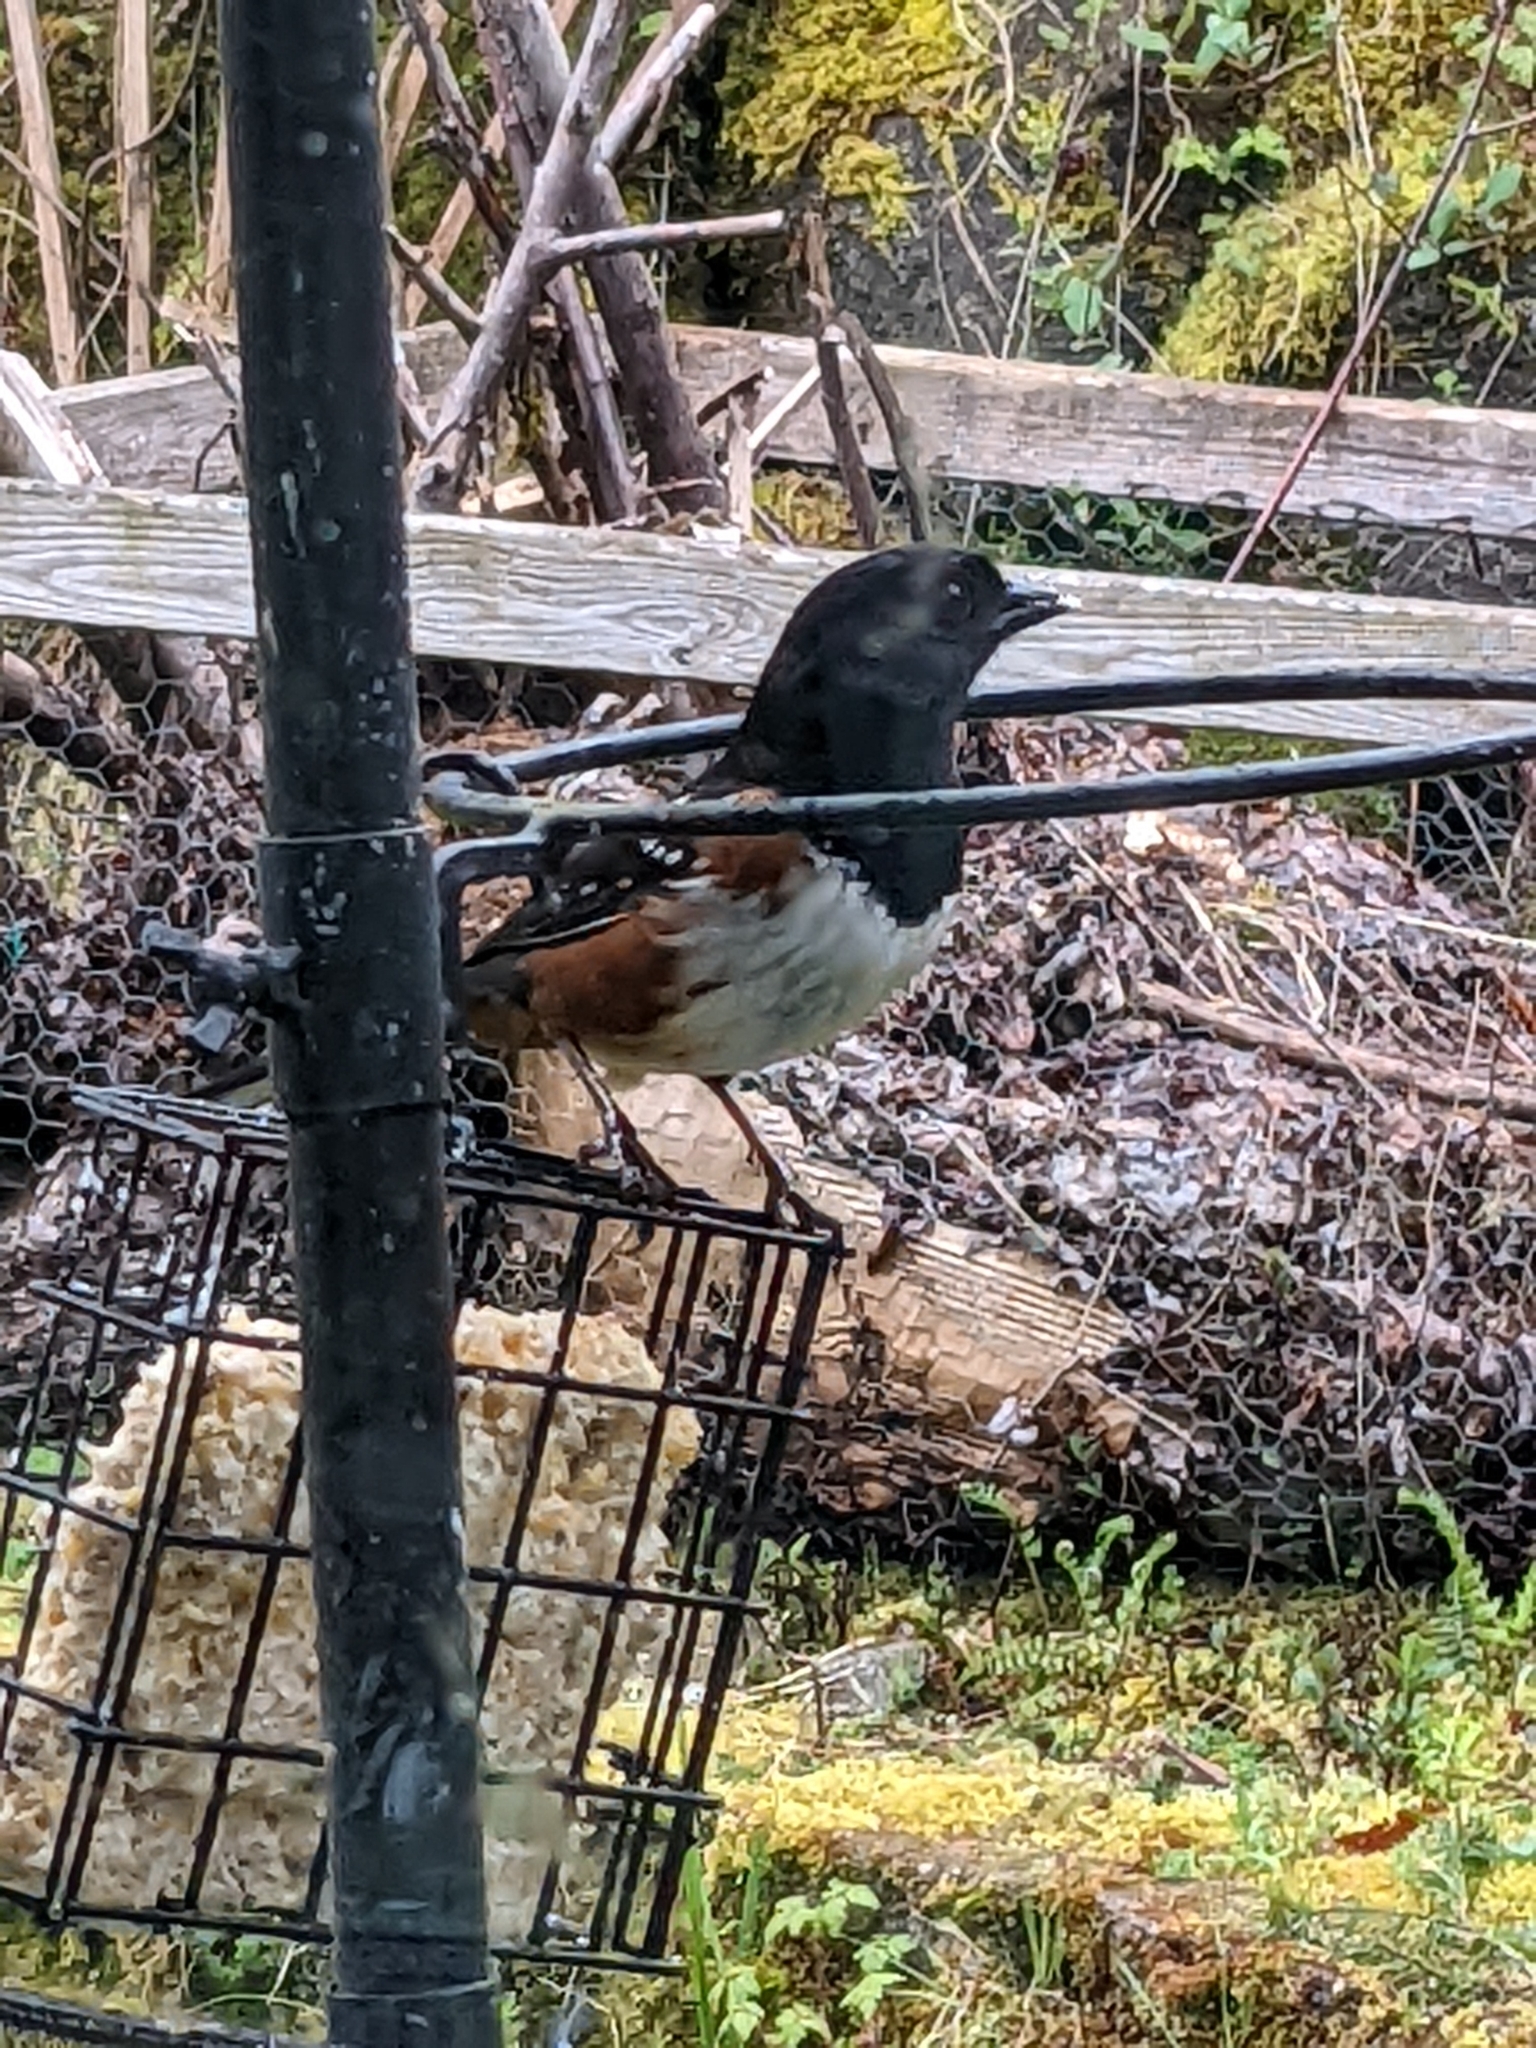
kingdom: Animalia
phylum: Chordata
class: Aves
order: Passeriformes
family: Passerellidae
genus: Pipilo
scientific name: Pipilo maculatus
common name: Spotted towhee
